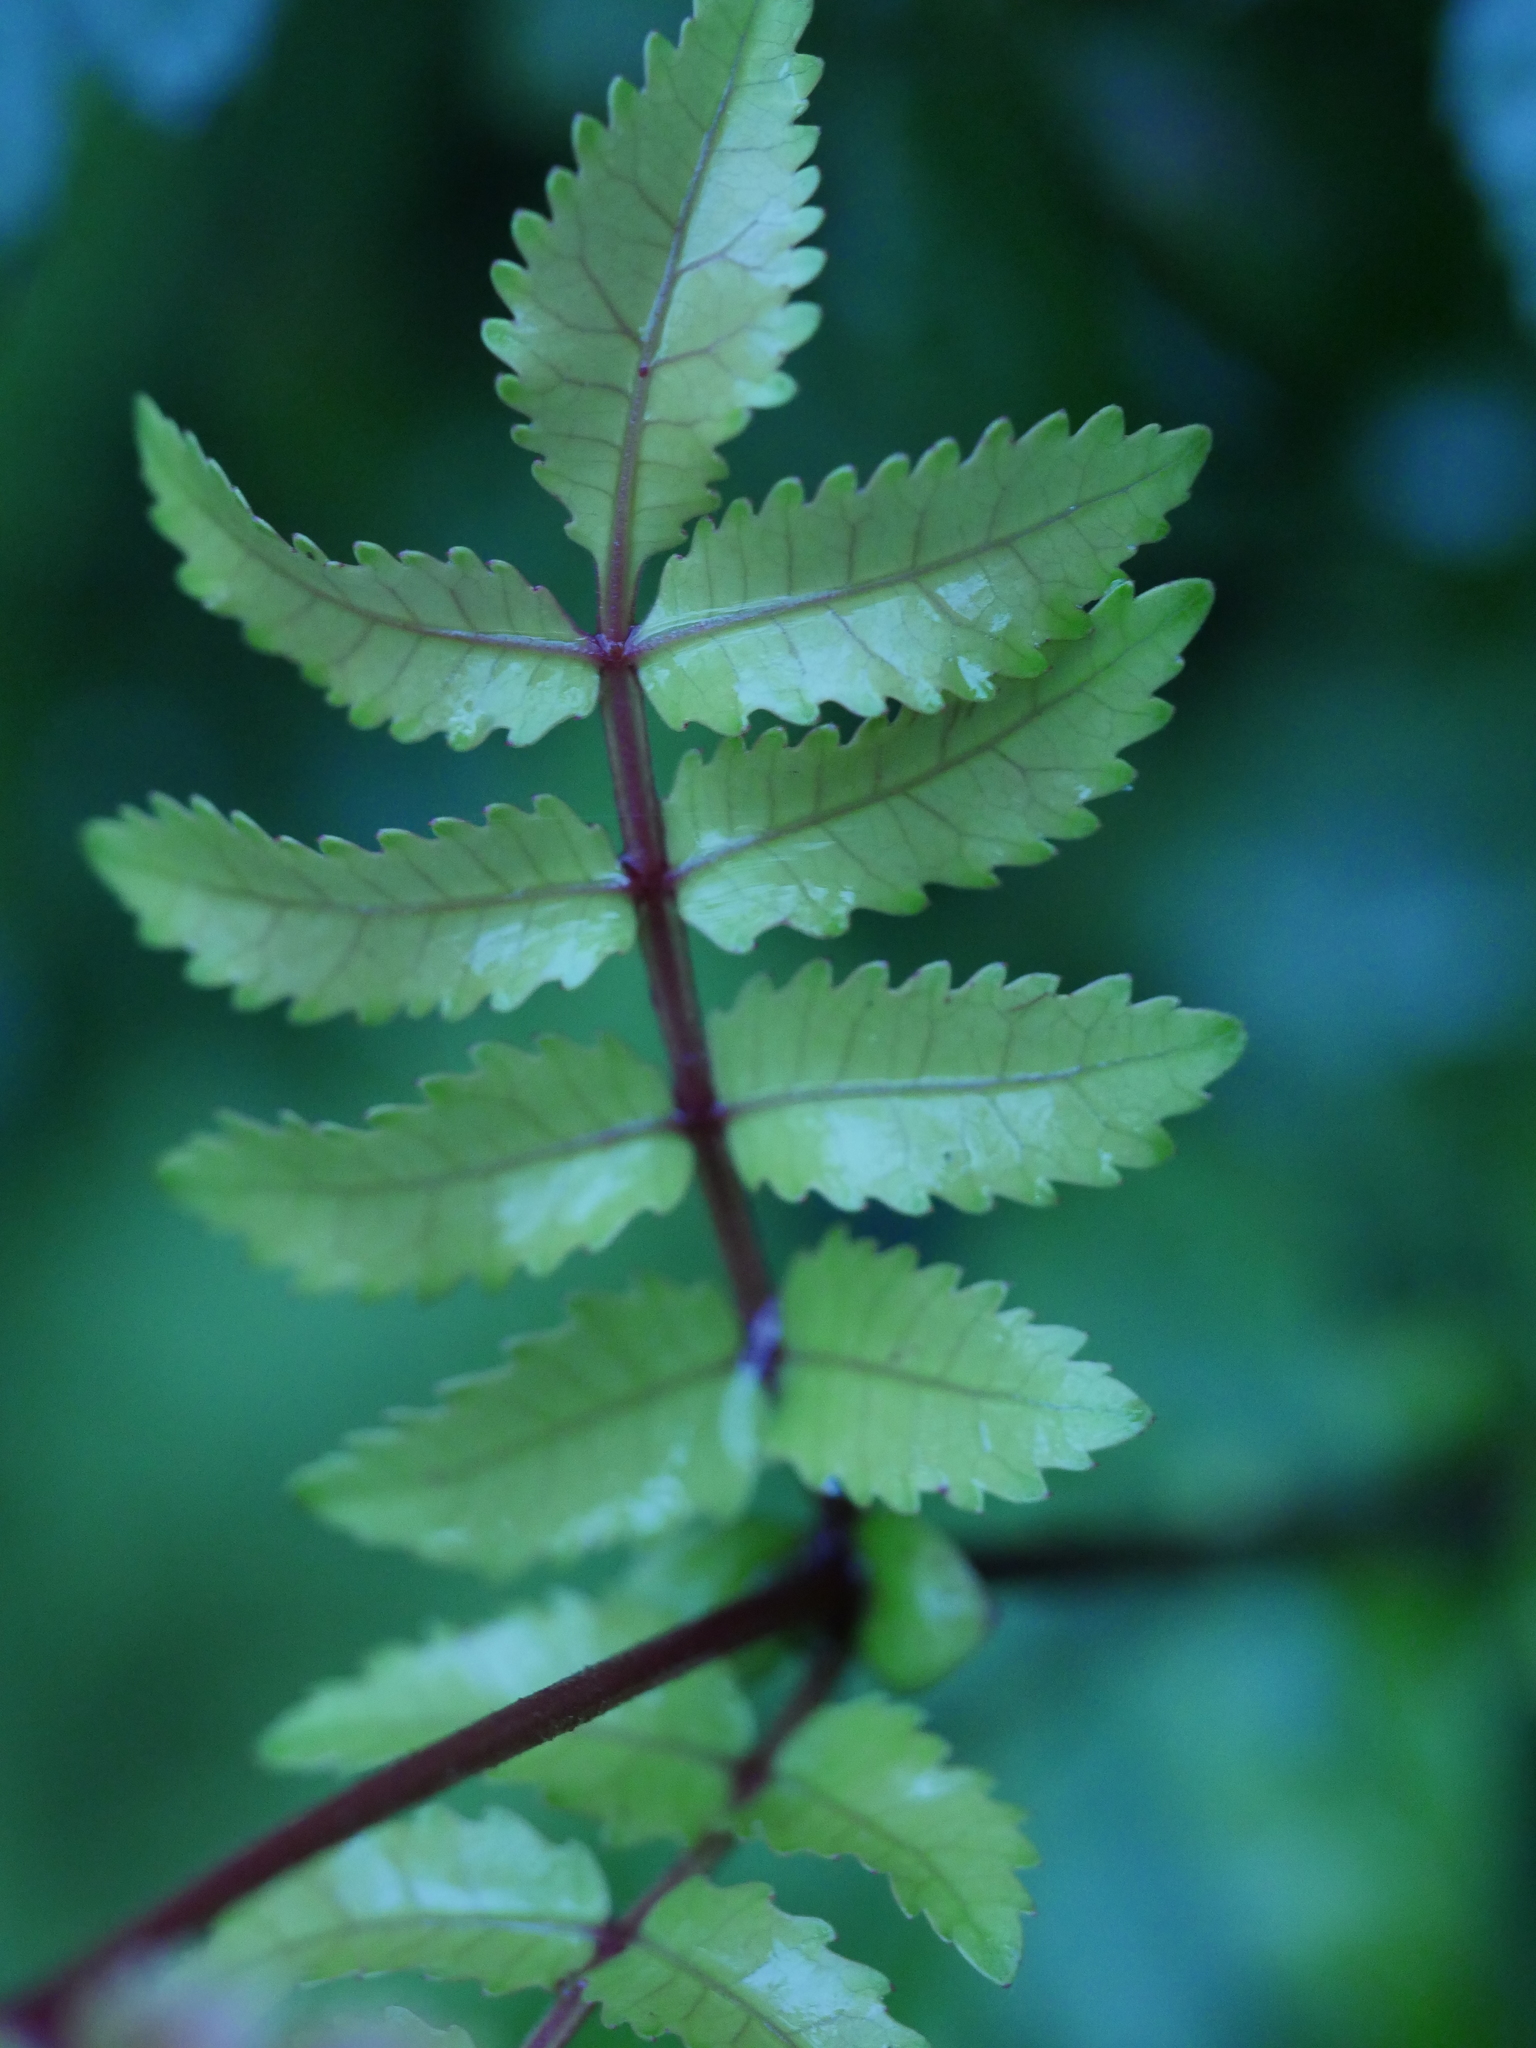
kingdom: Plantae
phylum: Tracheophyta
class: Magnoliopsida
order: Oxalidales
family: Cunoniaceae
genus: Pterophylla
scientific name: Pterophylla sylvicola
